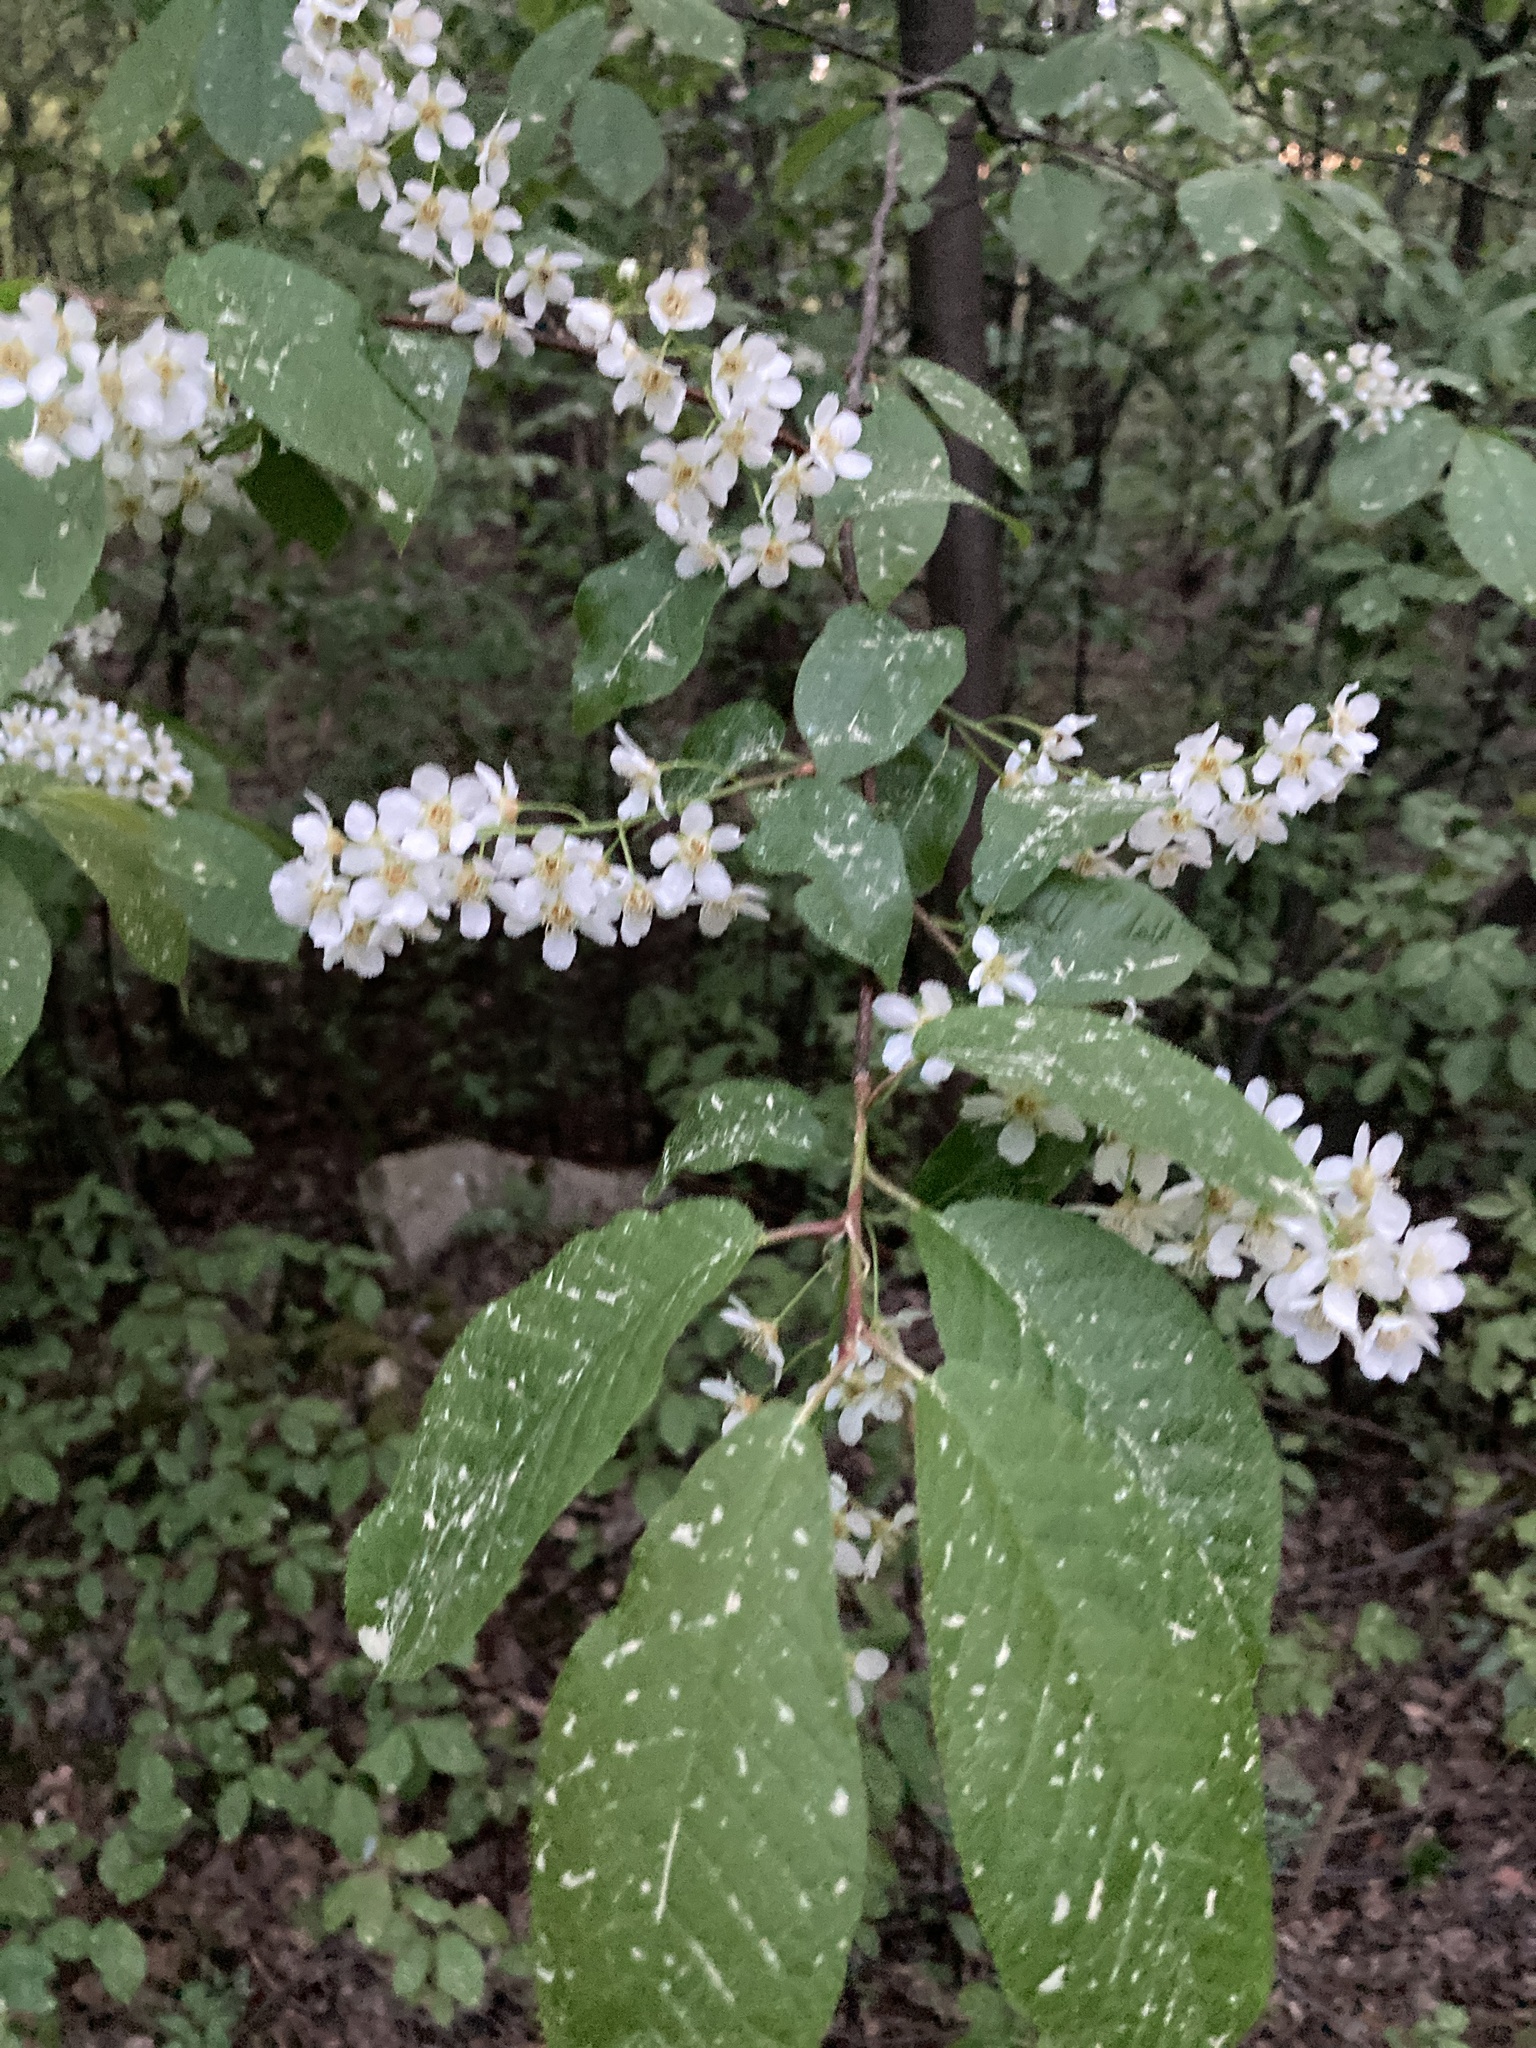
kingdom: Plantae
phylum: Tracheophyta
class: Magnoliopsida
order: Rosales
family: Rosaceae
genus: Prunus
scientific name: Prunus padus
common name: Bird cherry
